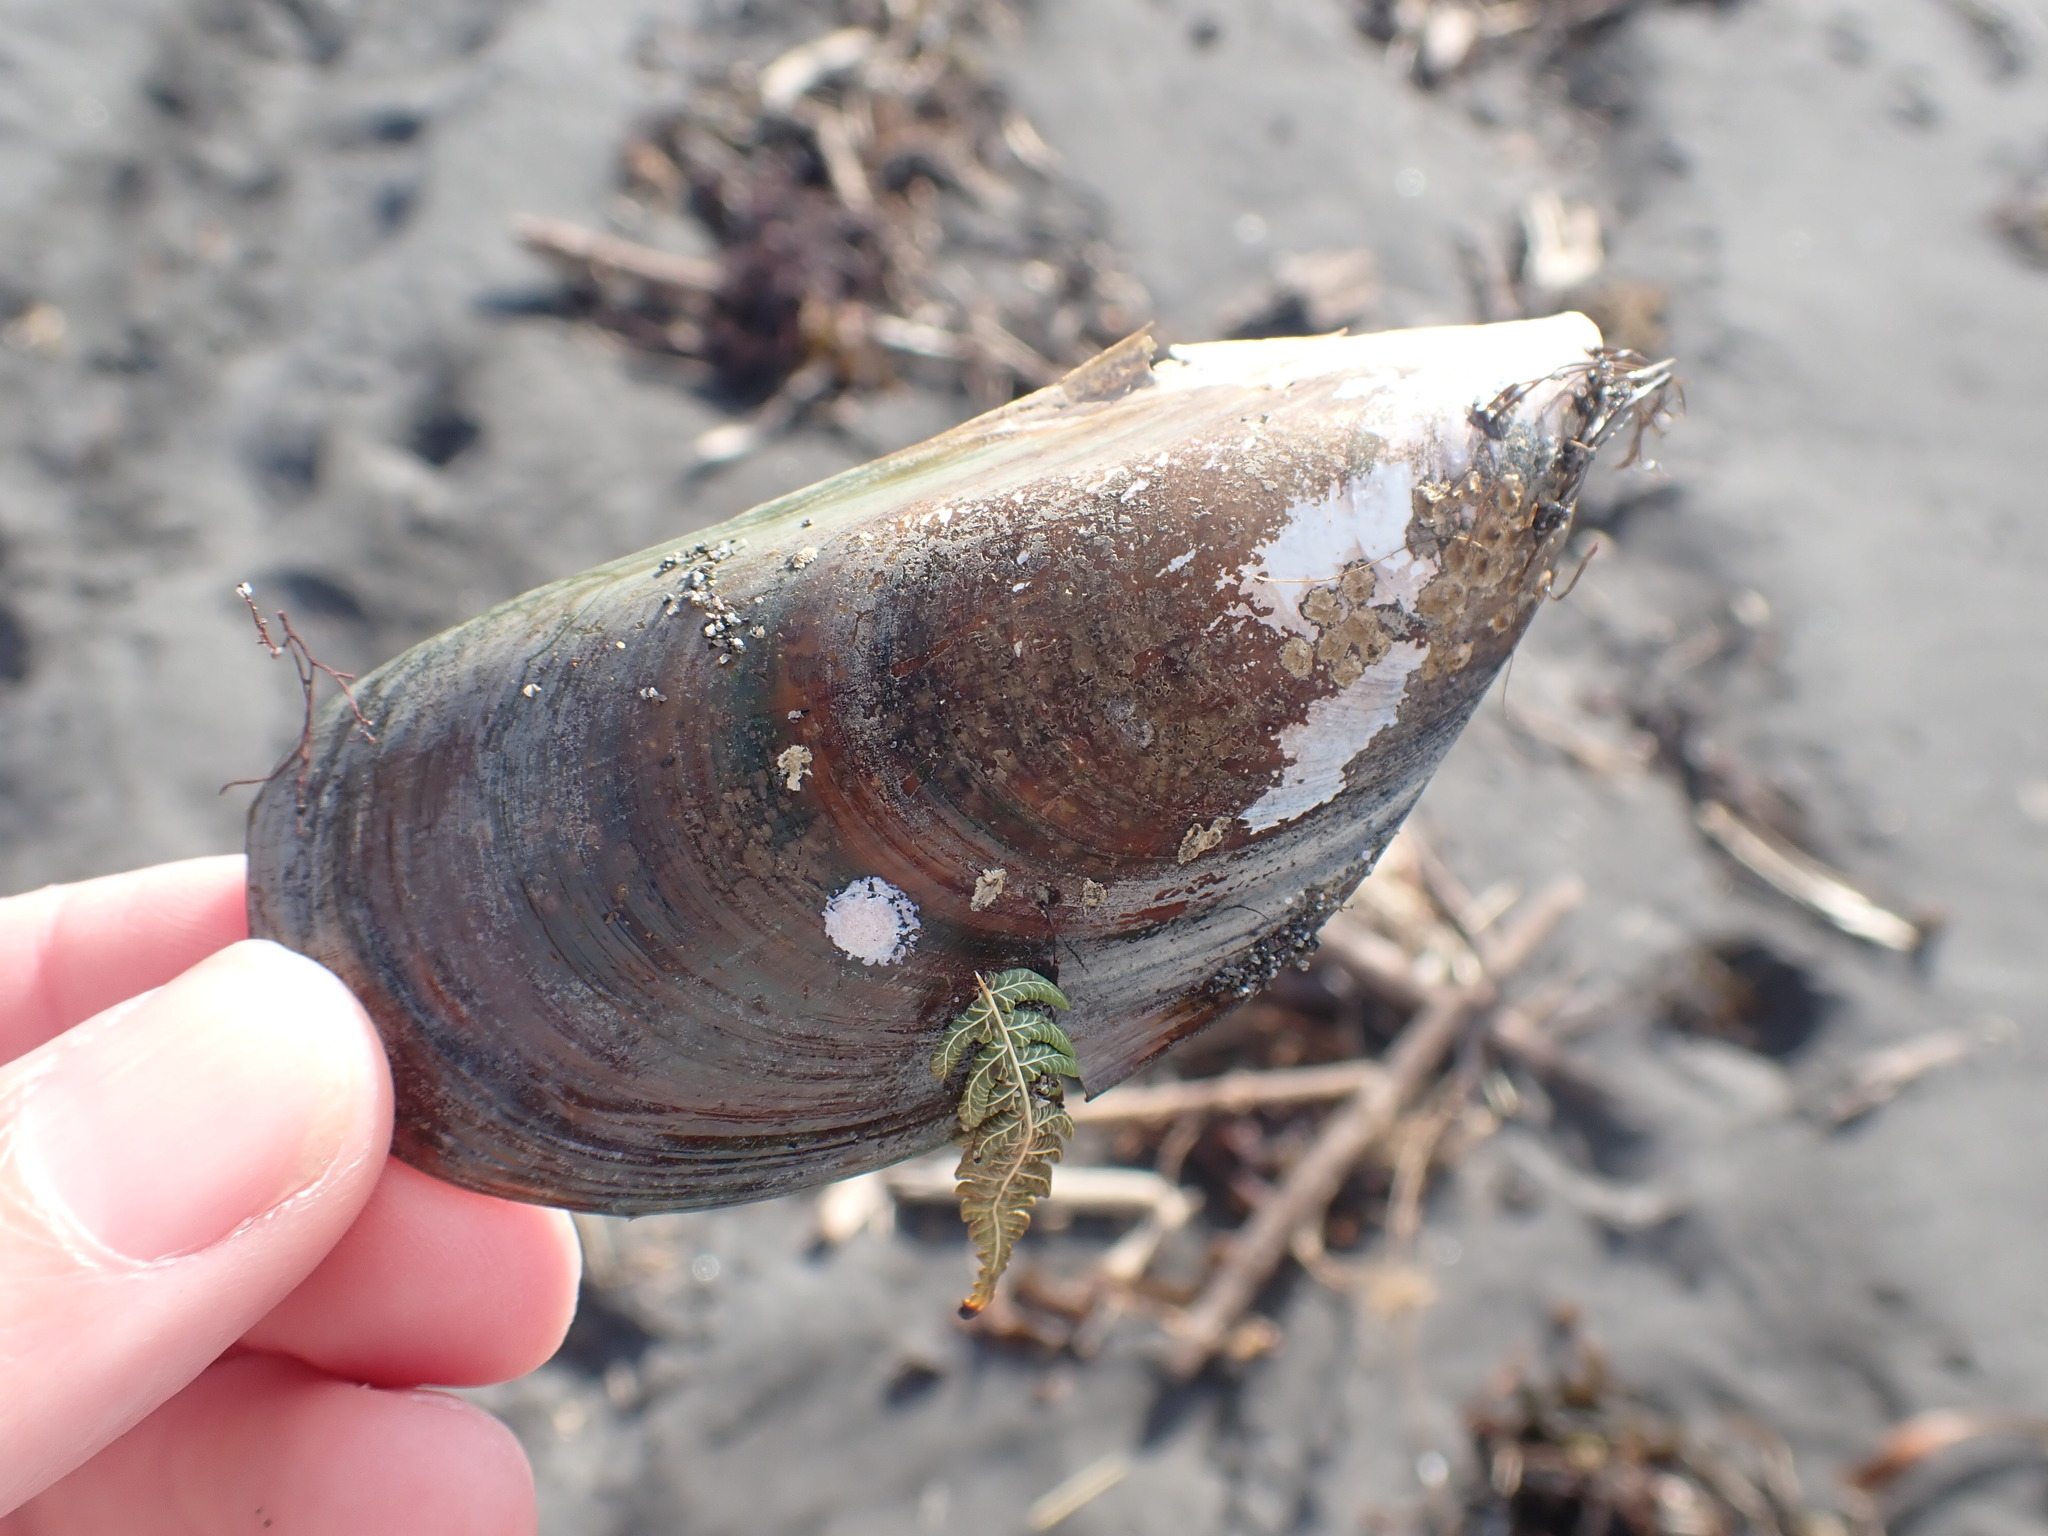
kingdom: Animalia
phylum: Mollusca
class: Bivalvia
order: Mytilida
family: Mytilidae
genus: Perna
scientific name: Perna canaliculus
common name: New zealand greenshelltm
